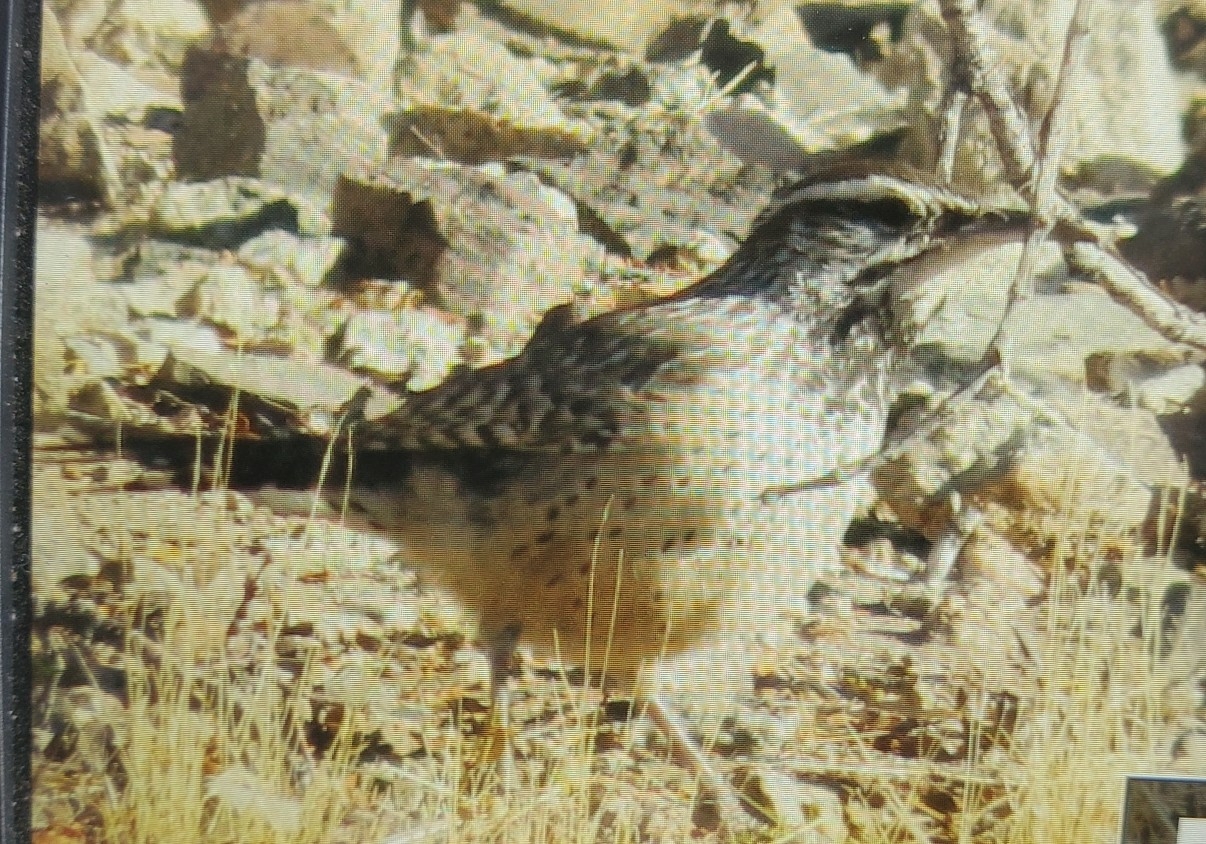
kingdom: Animalia
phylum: Chordata
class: Aves
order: Passeriformes
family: Troglodytidae
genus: Campylorhynchus
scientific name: Campylorhynchus brunneicapillus
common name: Cactus wren
